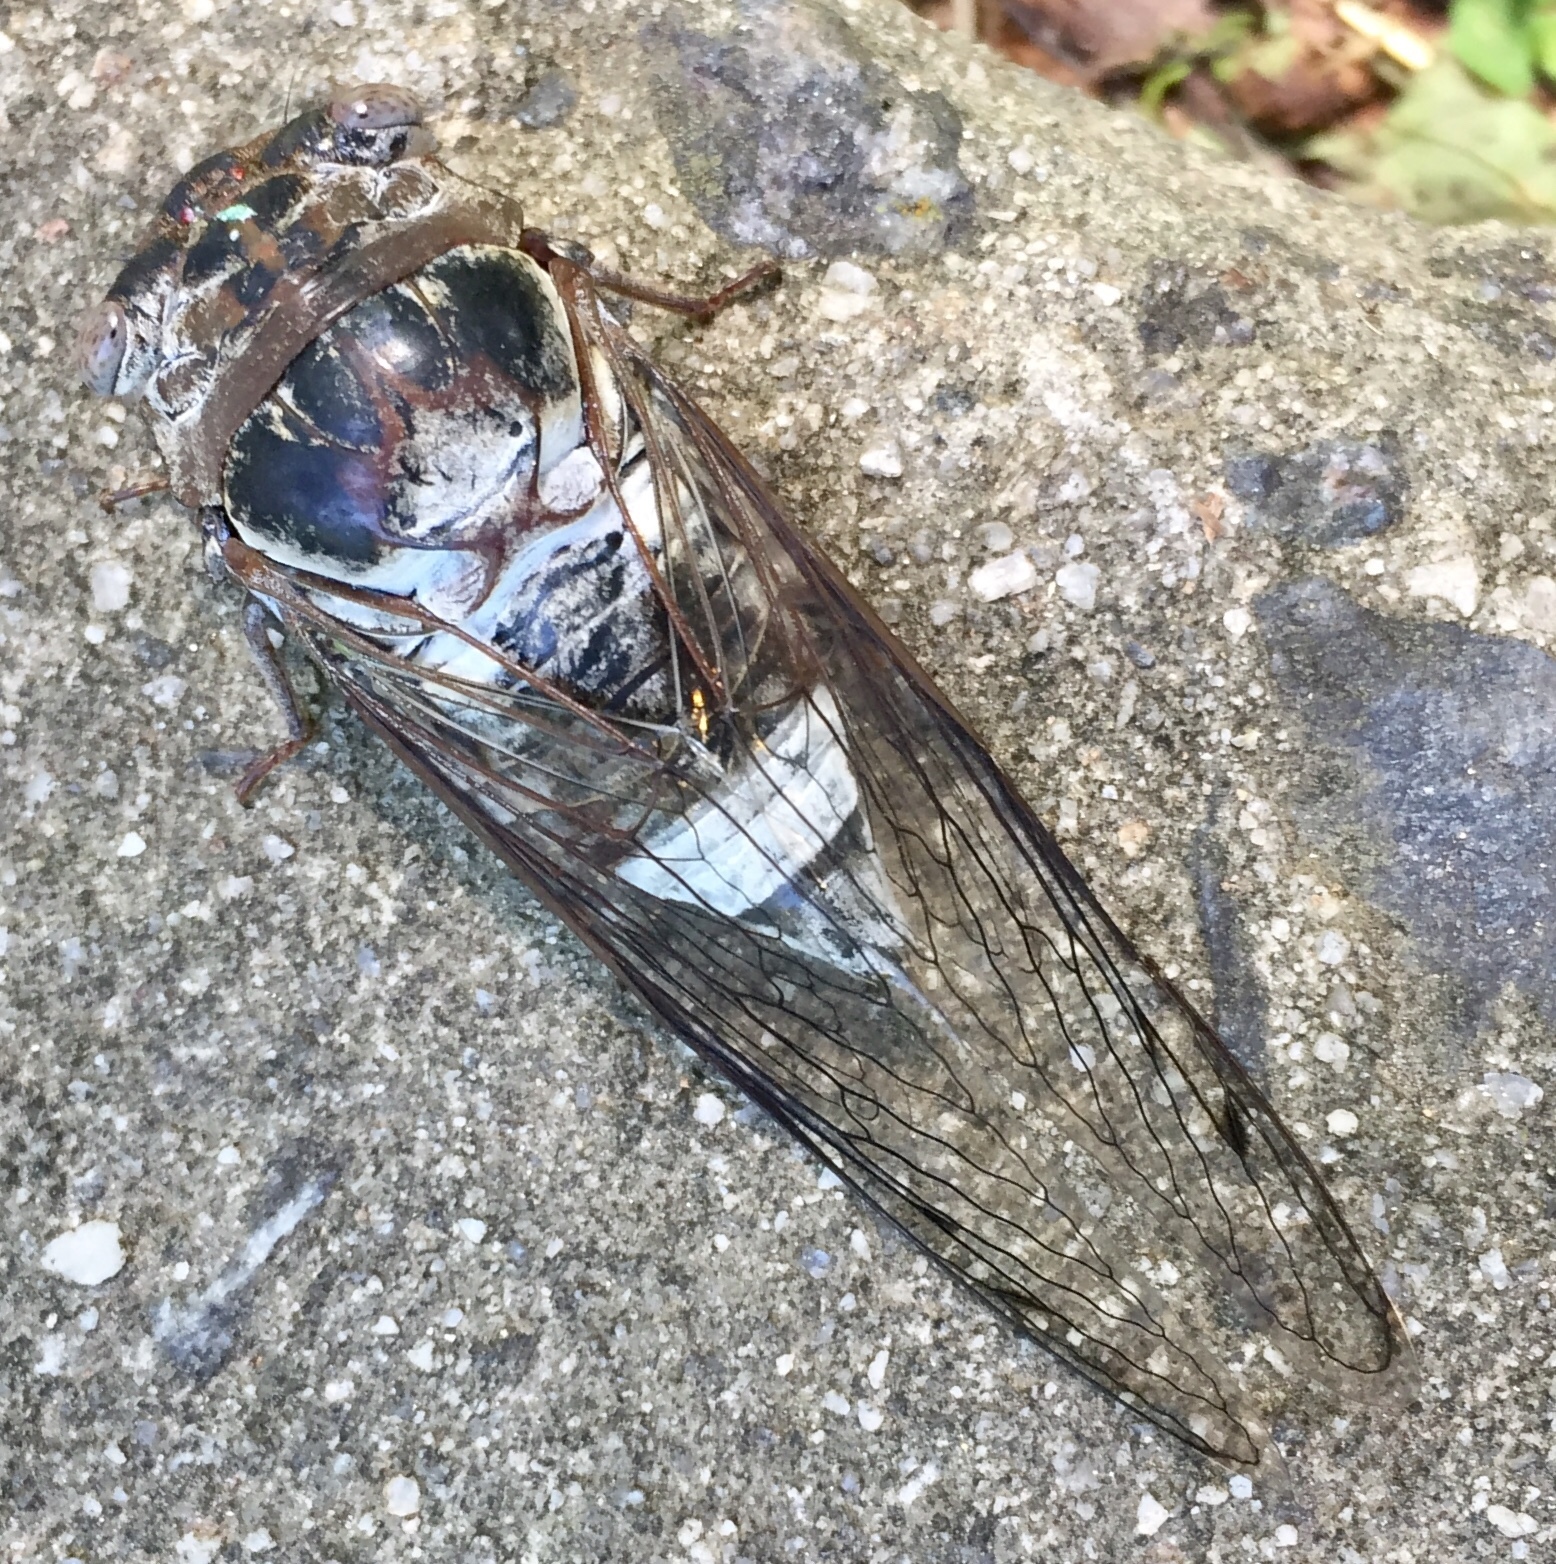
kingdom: Animalia
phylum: Arthropoda
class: Insecta
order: Hemiptera
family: Cicadidae
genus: Diceroprocta
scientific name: Diceroprocta grossa
